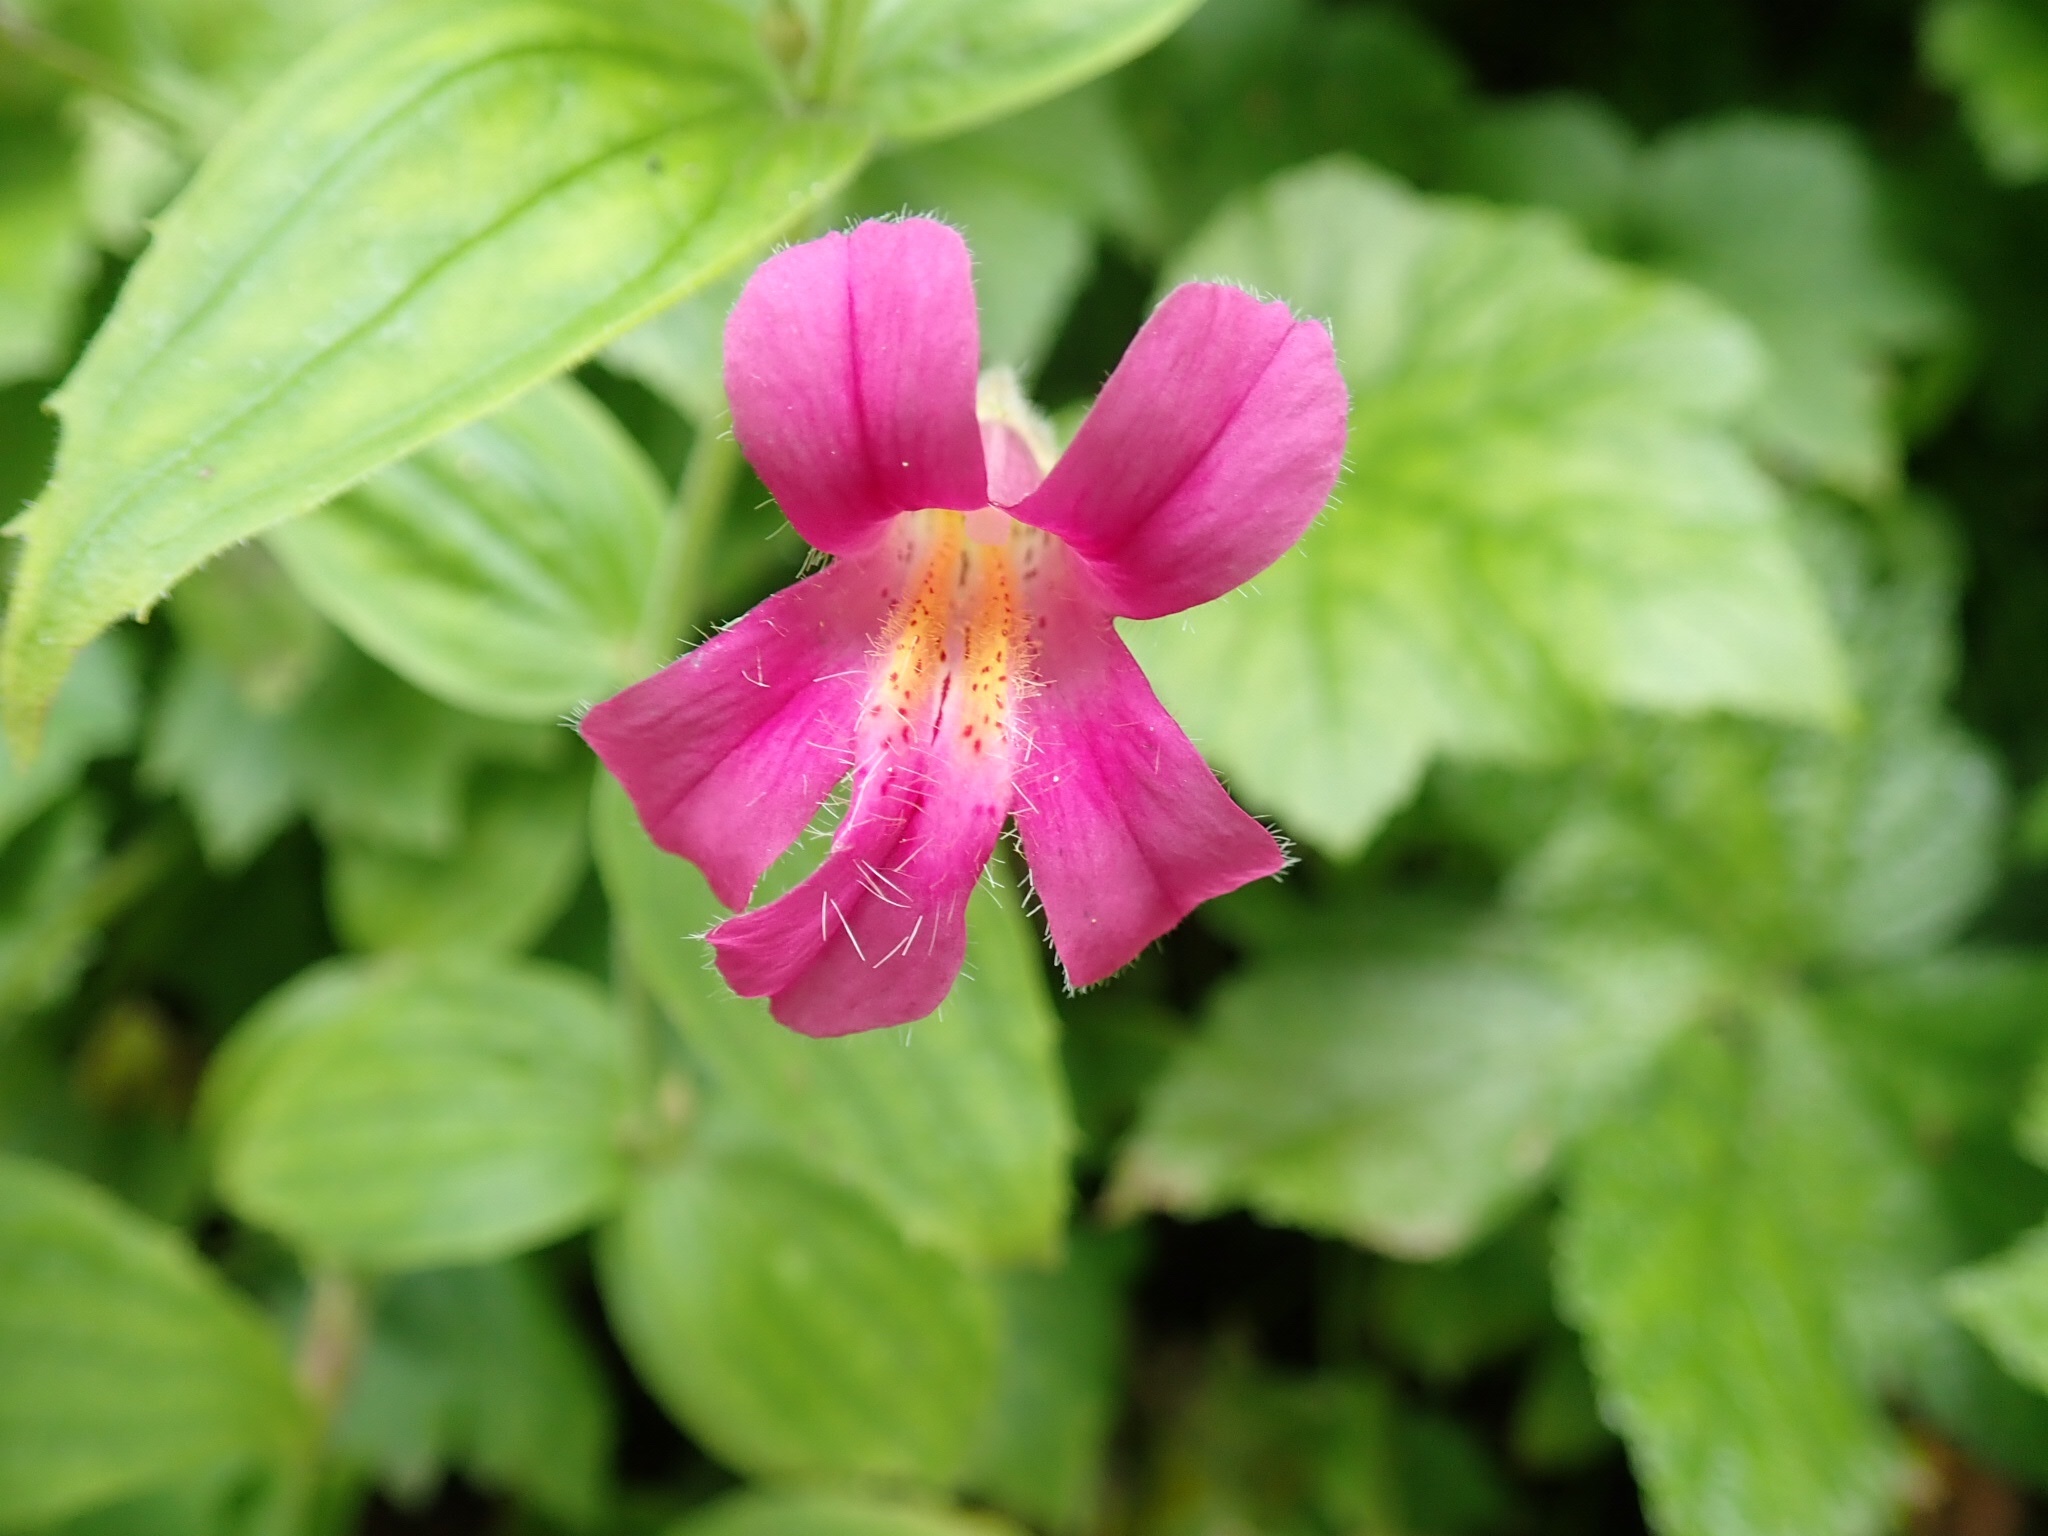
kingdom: Plantae
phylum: Tracheophyta
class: Magnoliopsida
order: Lamiales
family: Phrymaceae
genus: Erythranthe
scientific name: Erythranthe lewisii
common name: Lewis's monkey-flower
